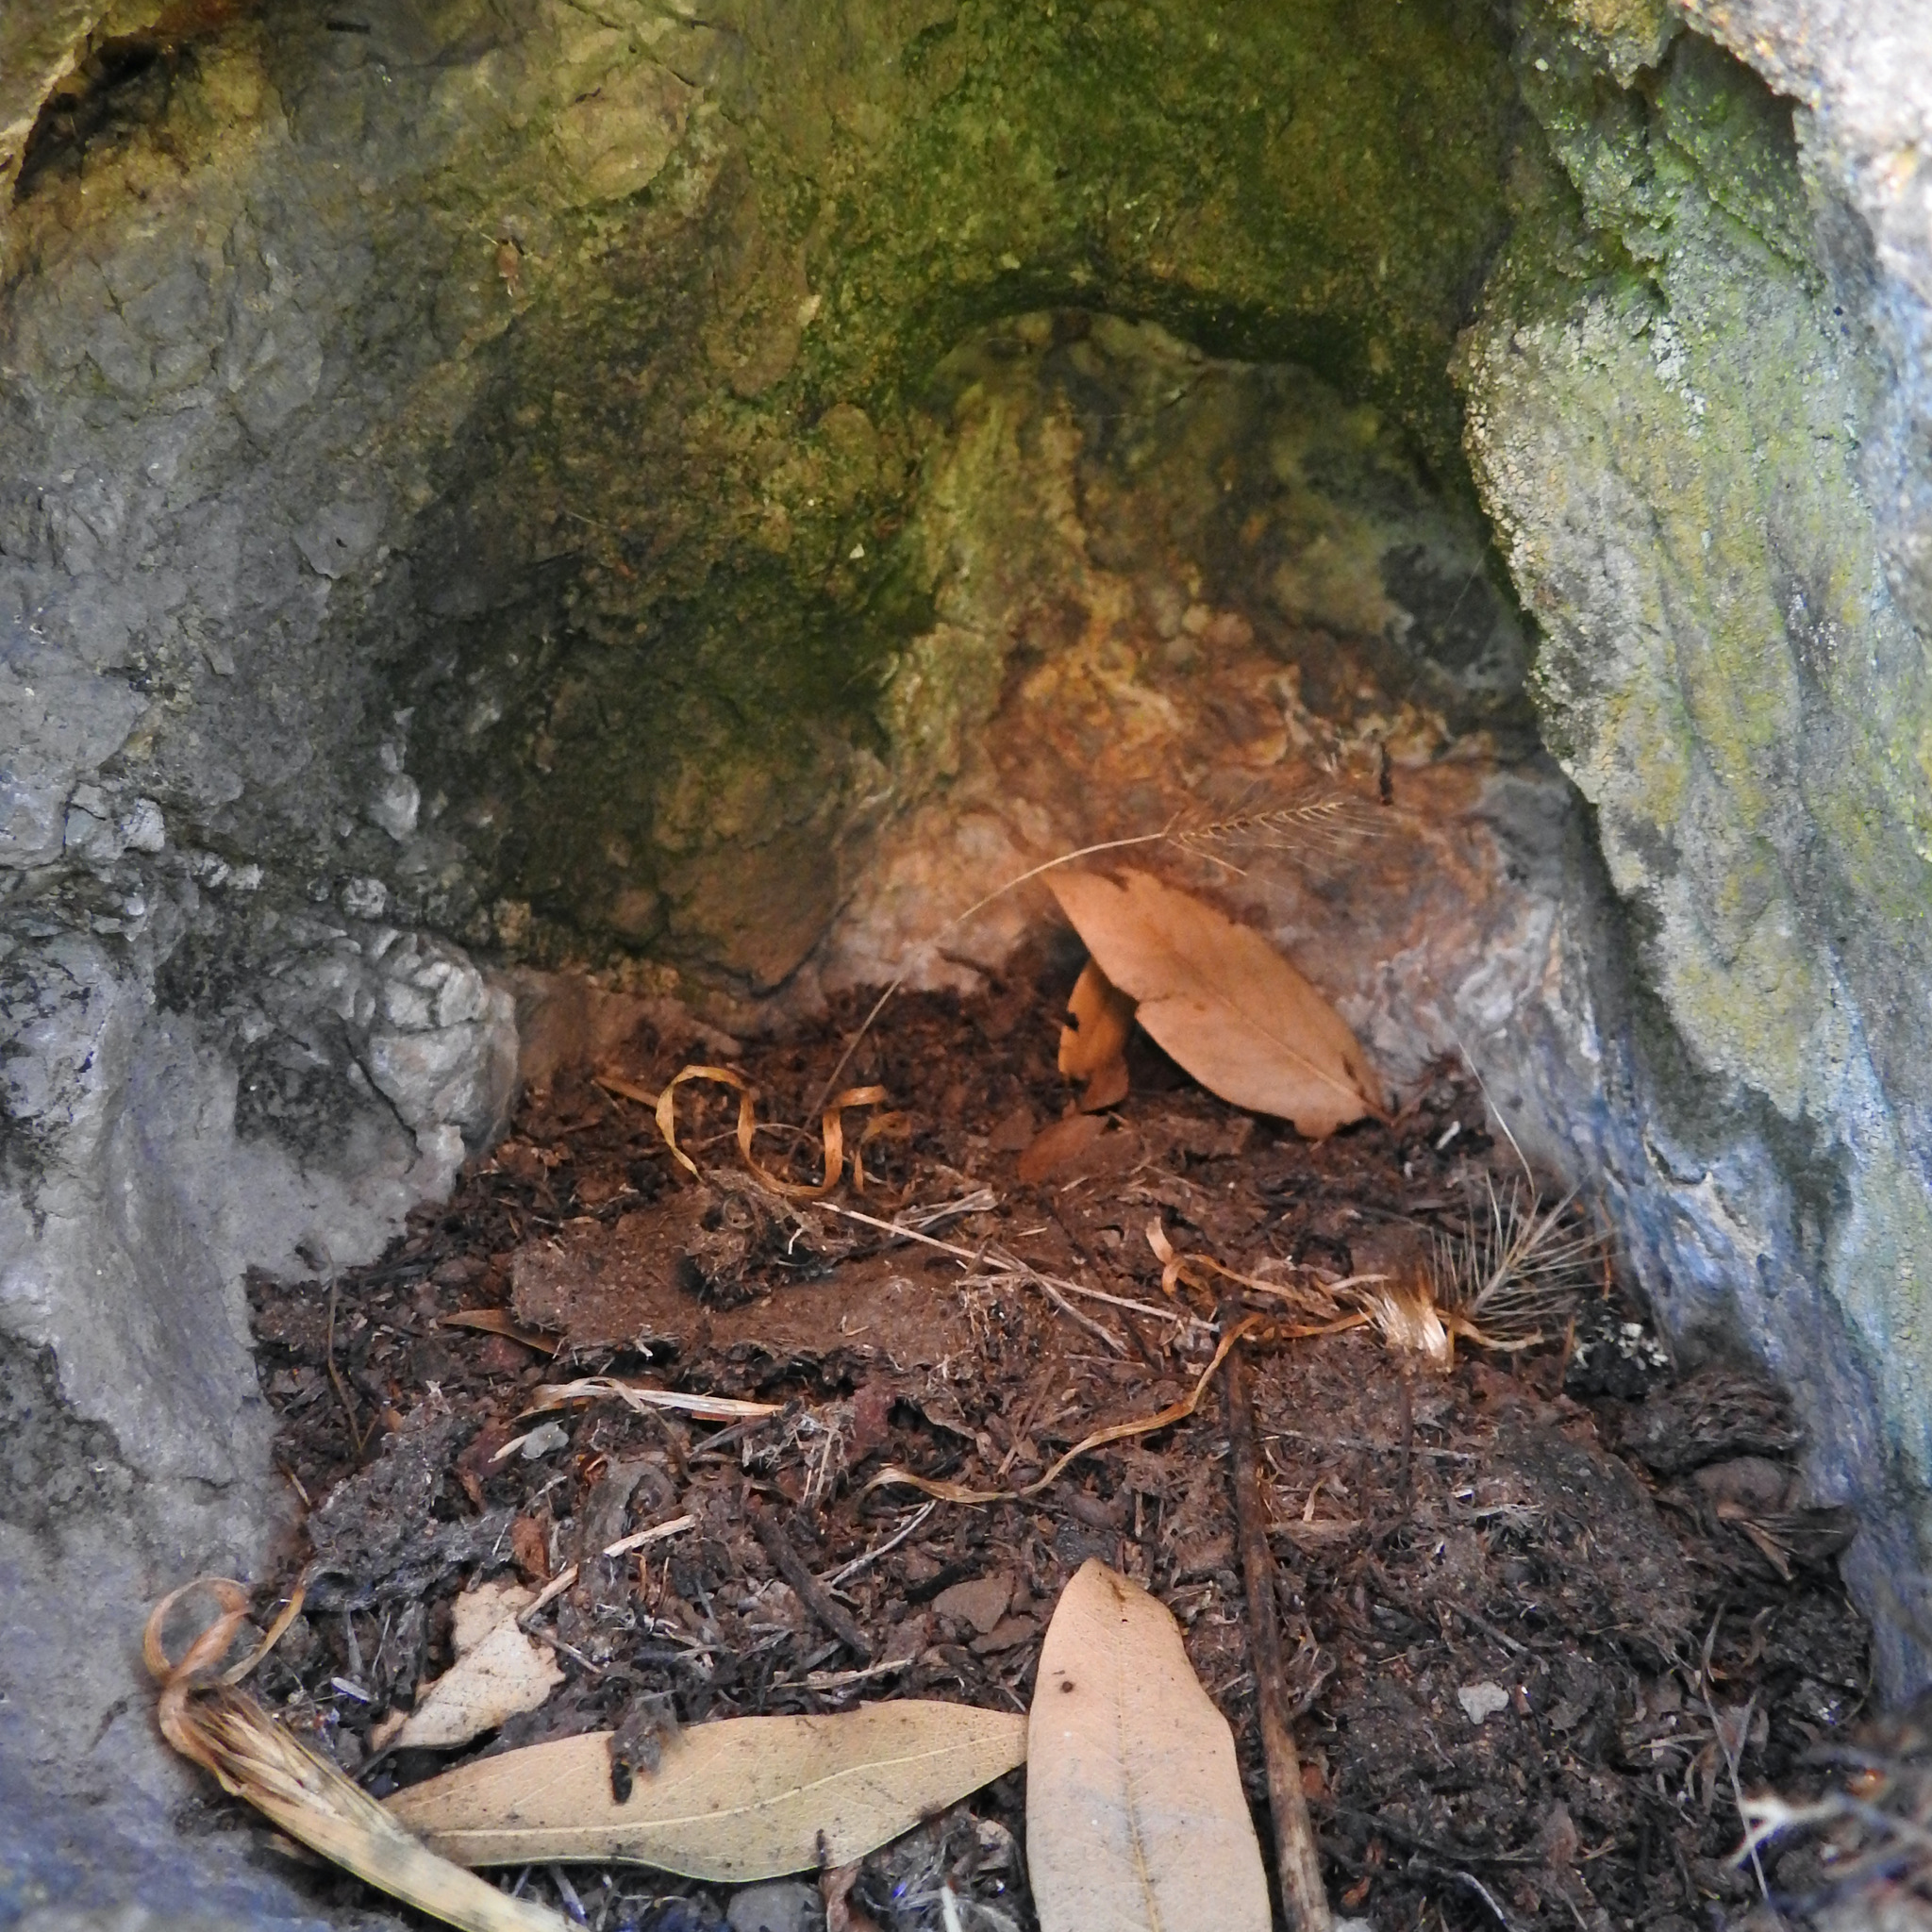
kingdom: Plantae
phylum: Tracheophyta
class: Liliopsida
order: Poales
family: Poaceae
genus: Taeniatherum
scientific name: Taeniatherum caput-medusae
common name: Medusahead
